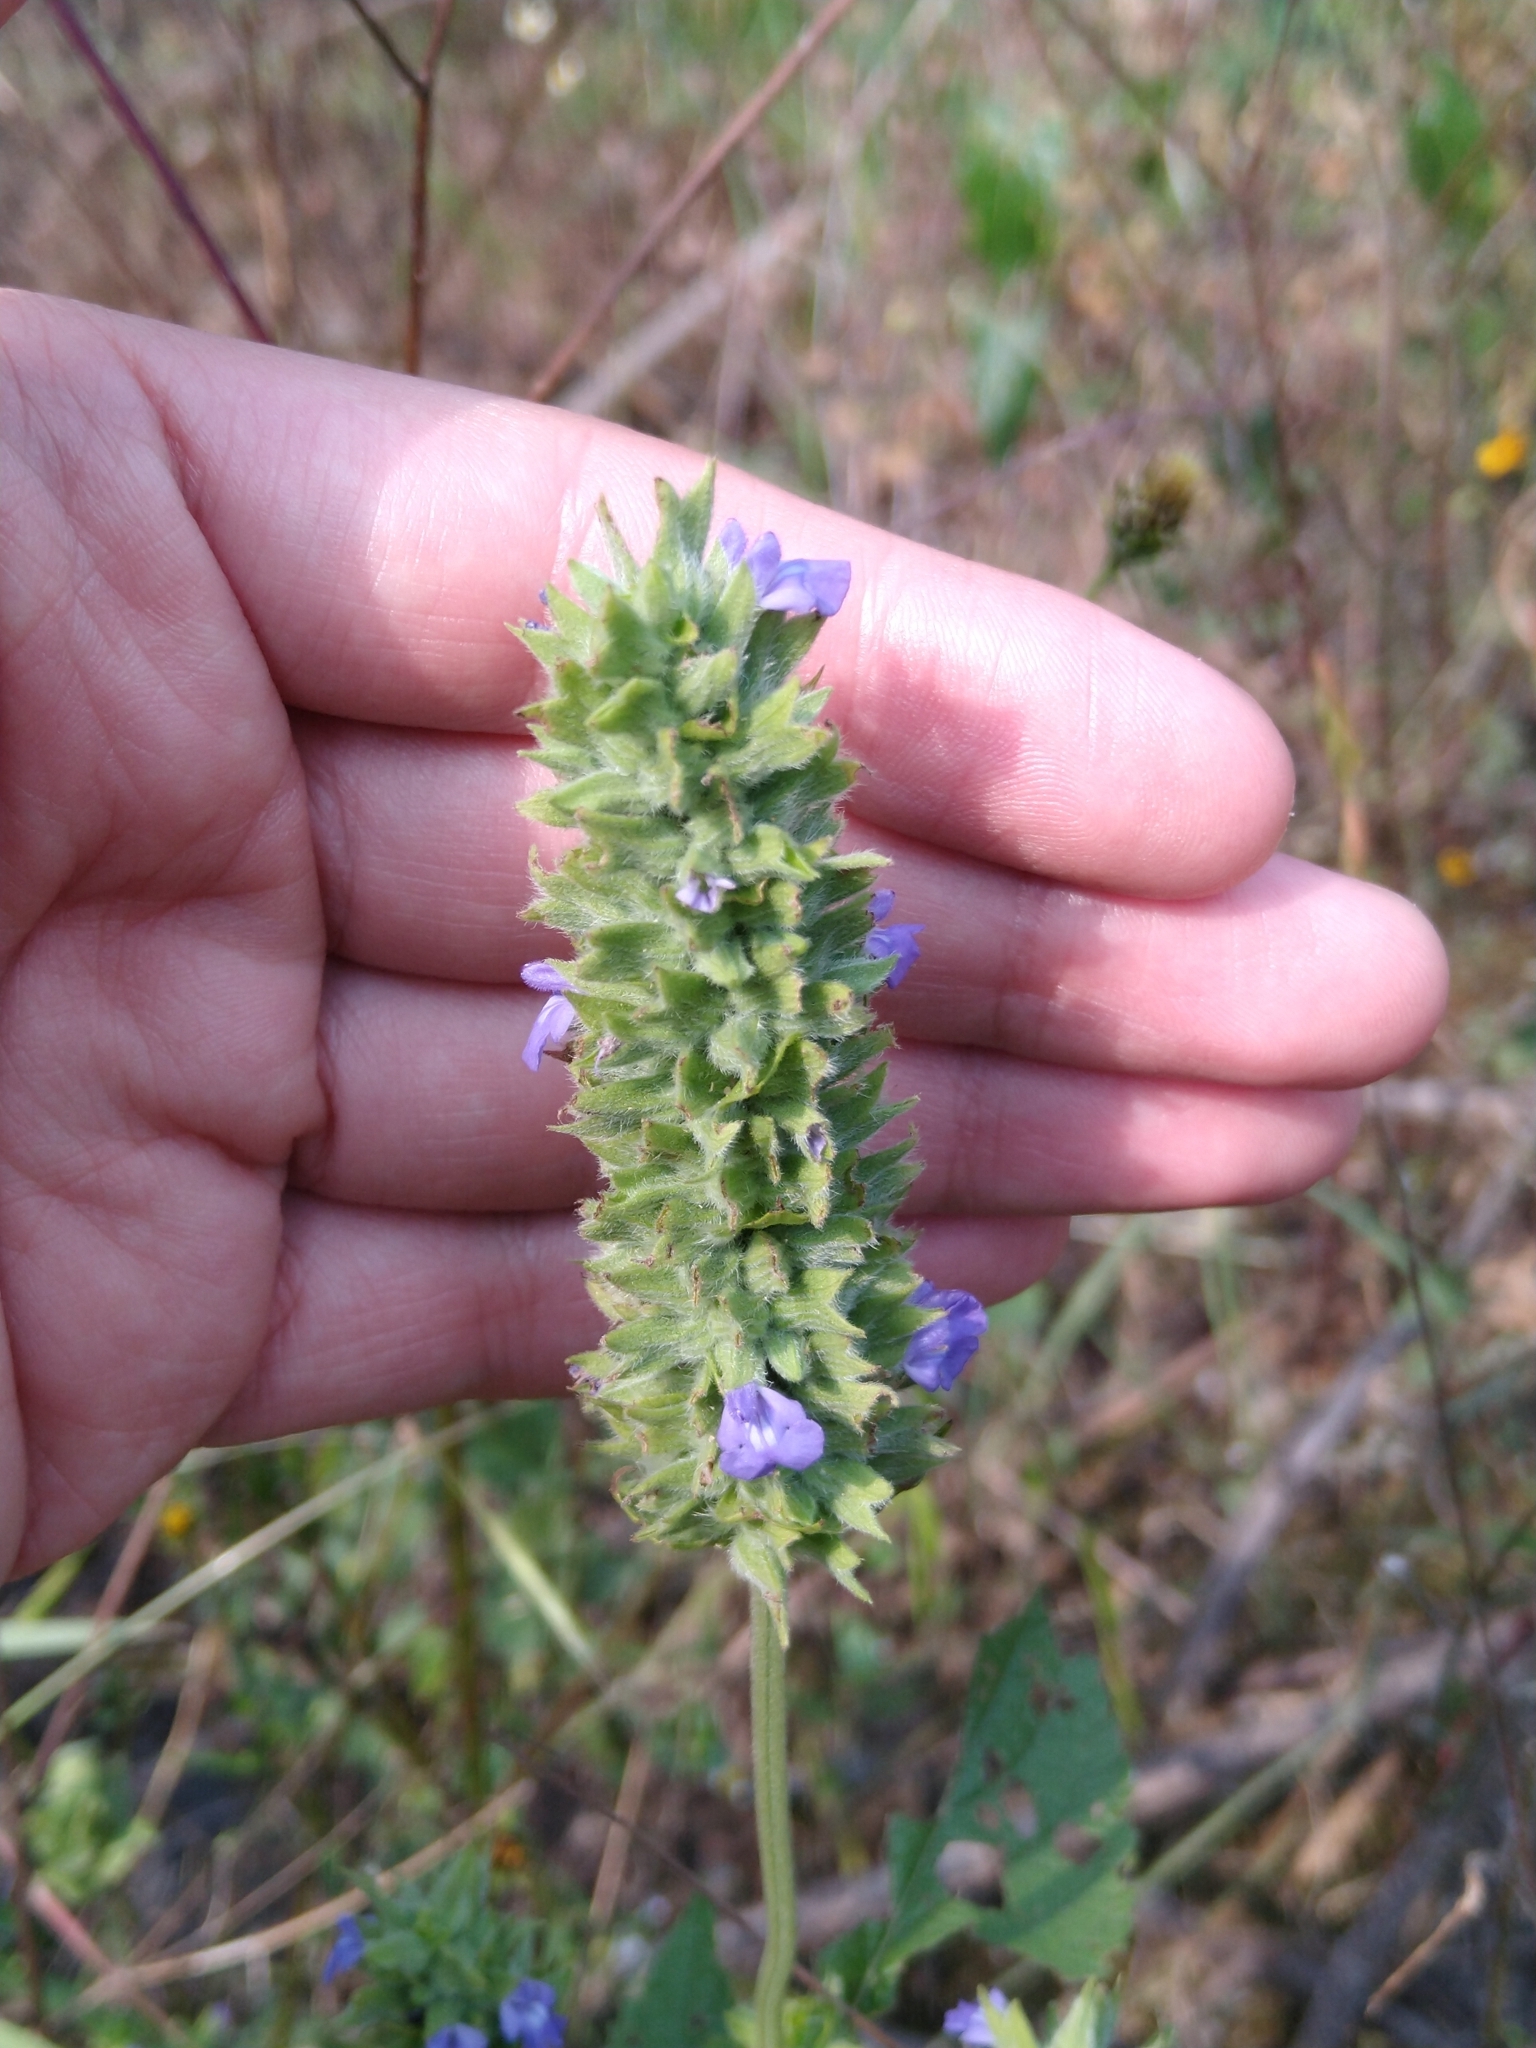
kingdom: Plantae
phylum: Tracheophyta
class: Magnoliopsida
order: Lamiales
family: Lamiaceae
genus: Salvia
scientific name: Salvia hispanica
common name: Chia
